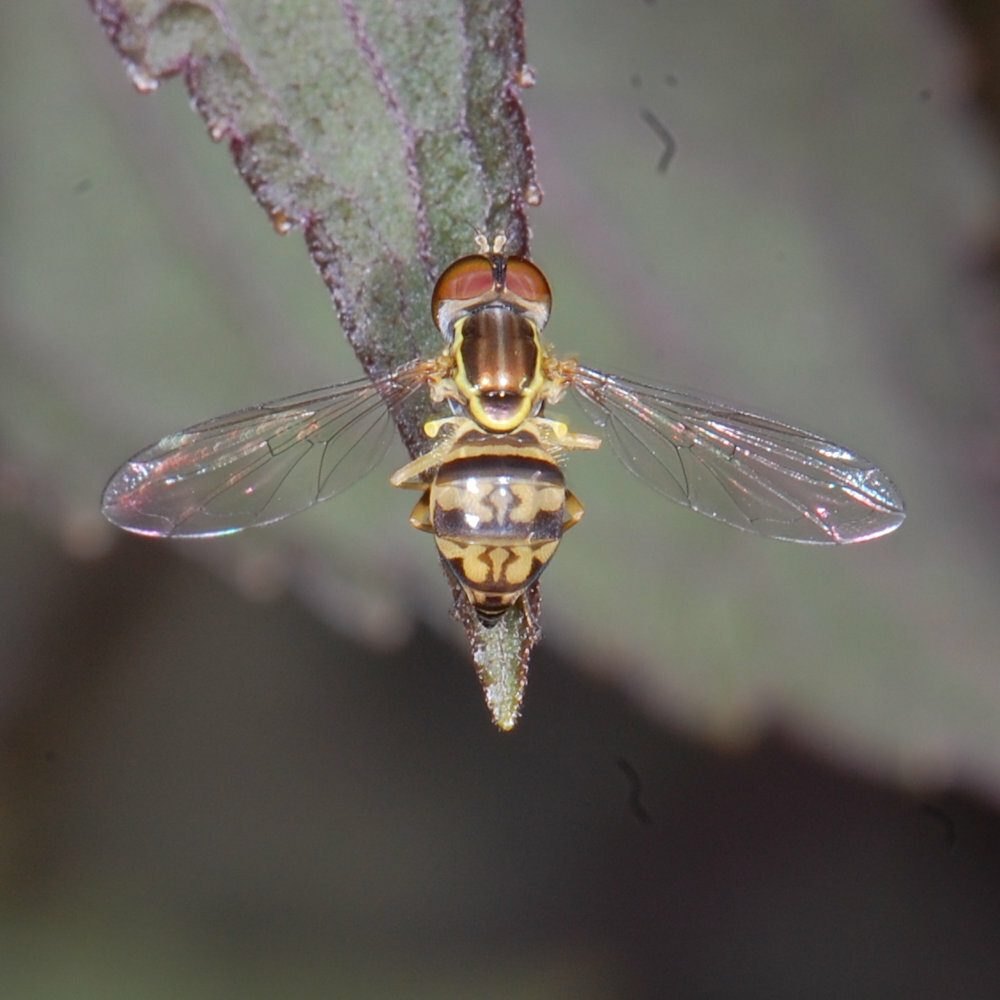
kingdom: Animalia
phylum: Arthropoda
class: Insecta
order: Diptera
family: Syrphidae
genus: Toxomerus
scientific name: Toxomerus geminatus
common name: Eastern calligrapher
